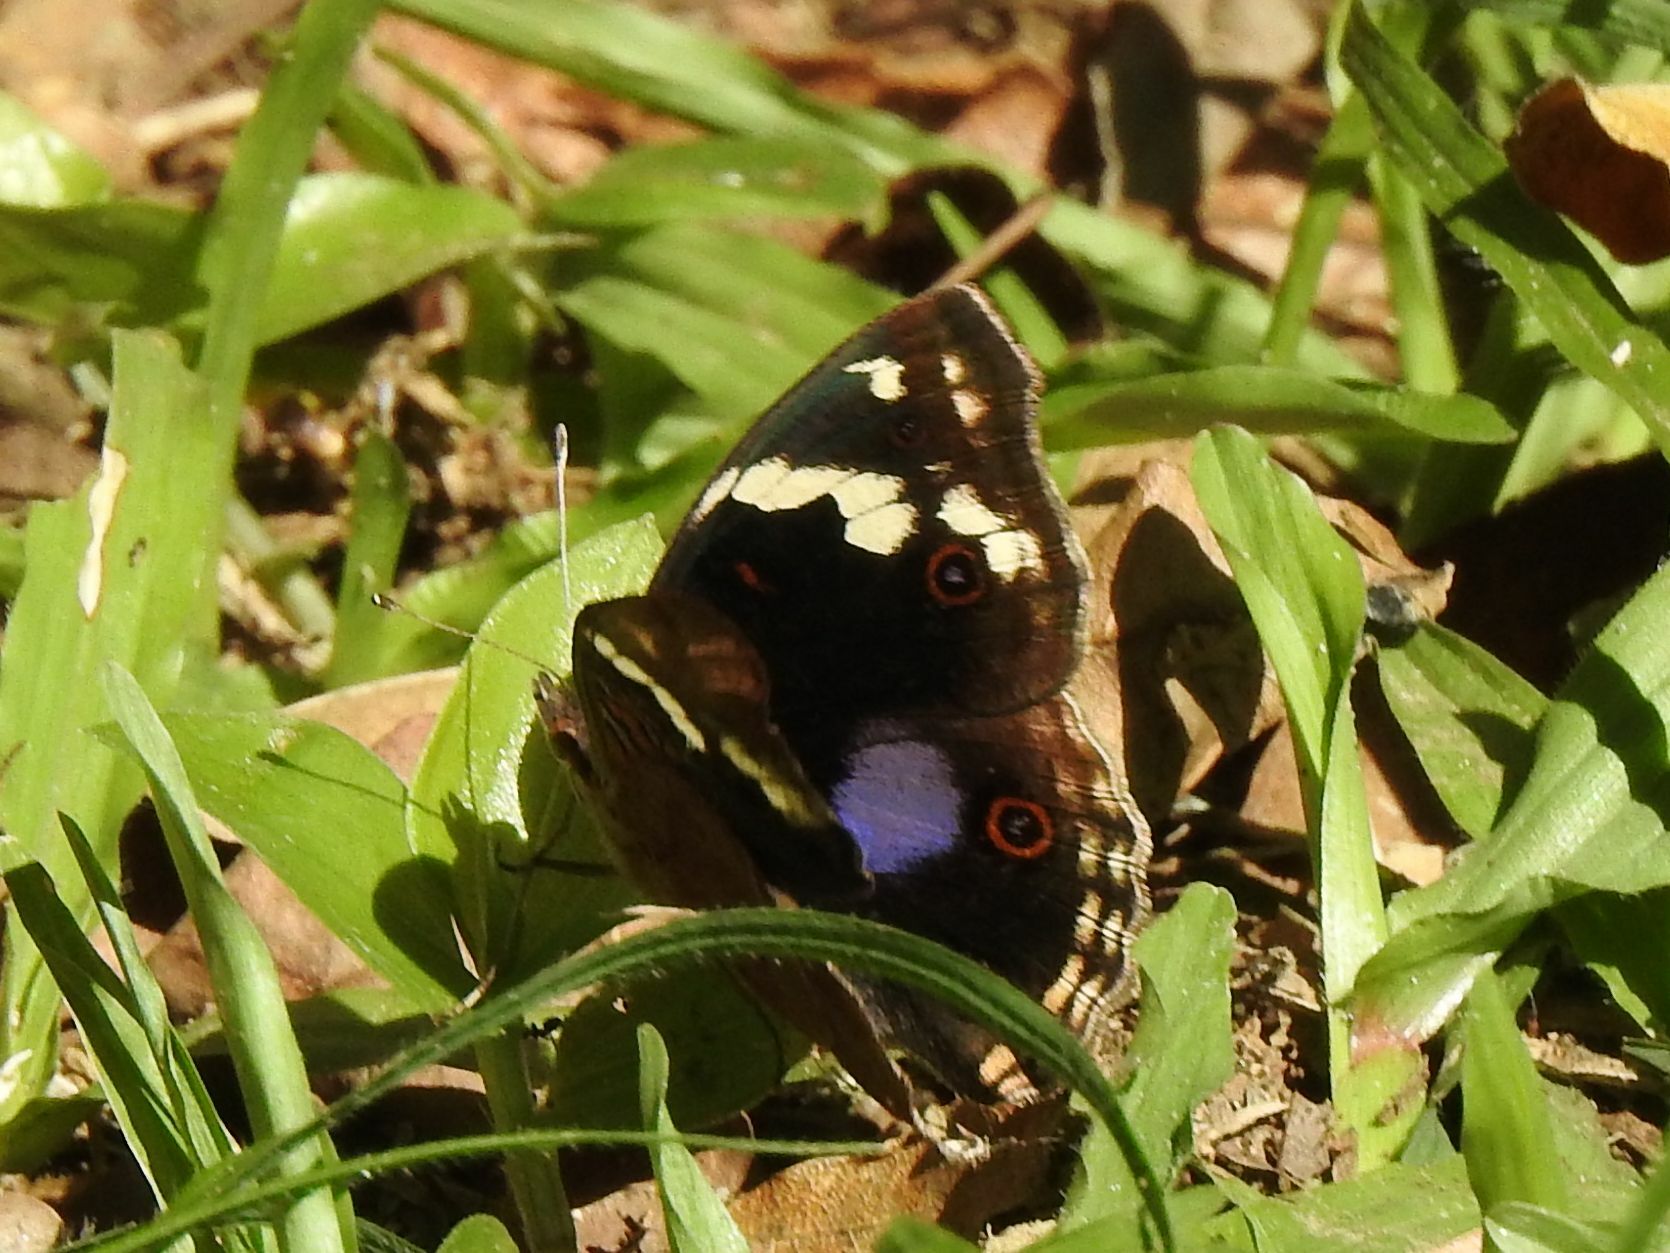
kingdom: Animalia
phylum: Arthropoda
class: Insecta
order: Lepidoptera
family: Nymphalidae
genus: Junonia
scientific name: Junonia oenone
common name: Dark blue pansy
